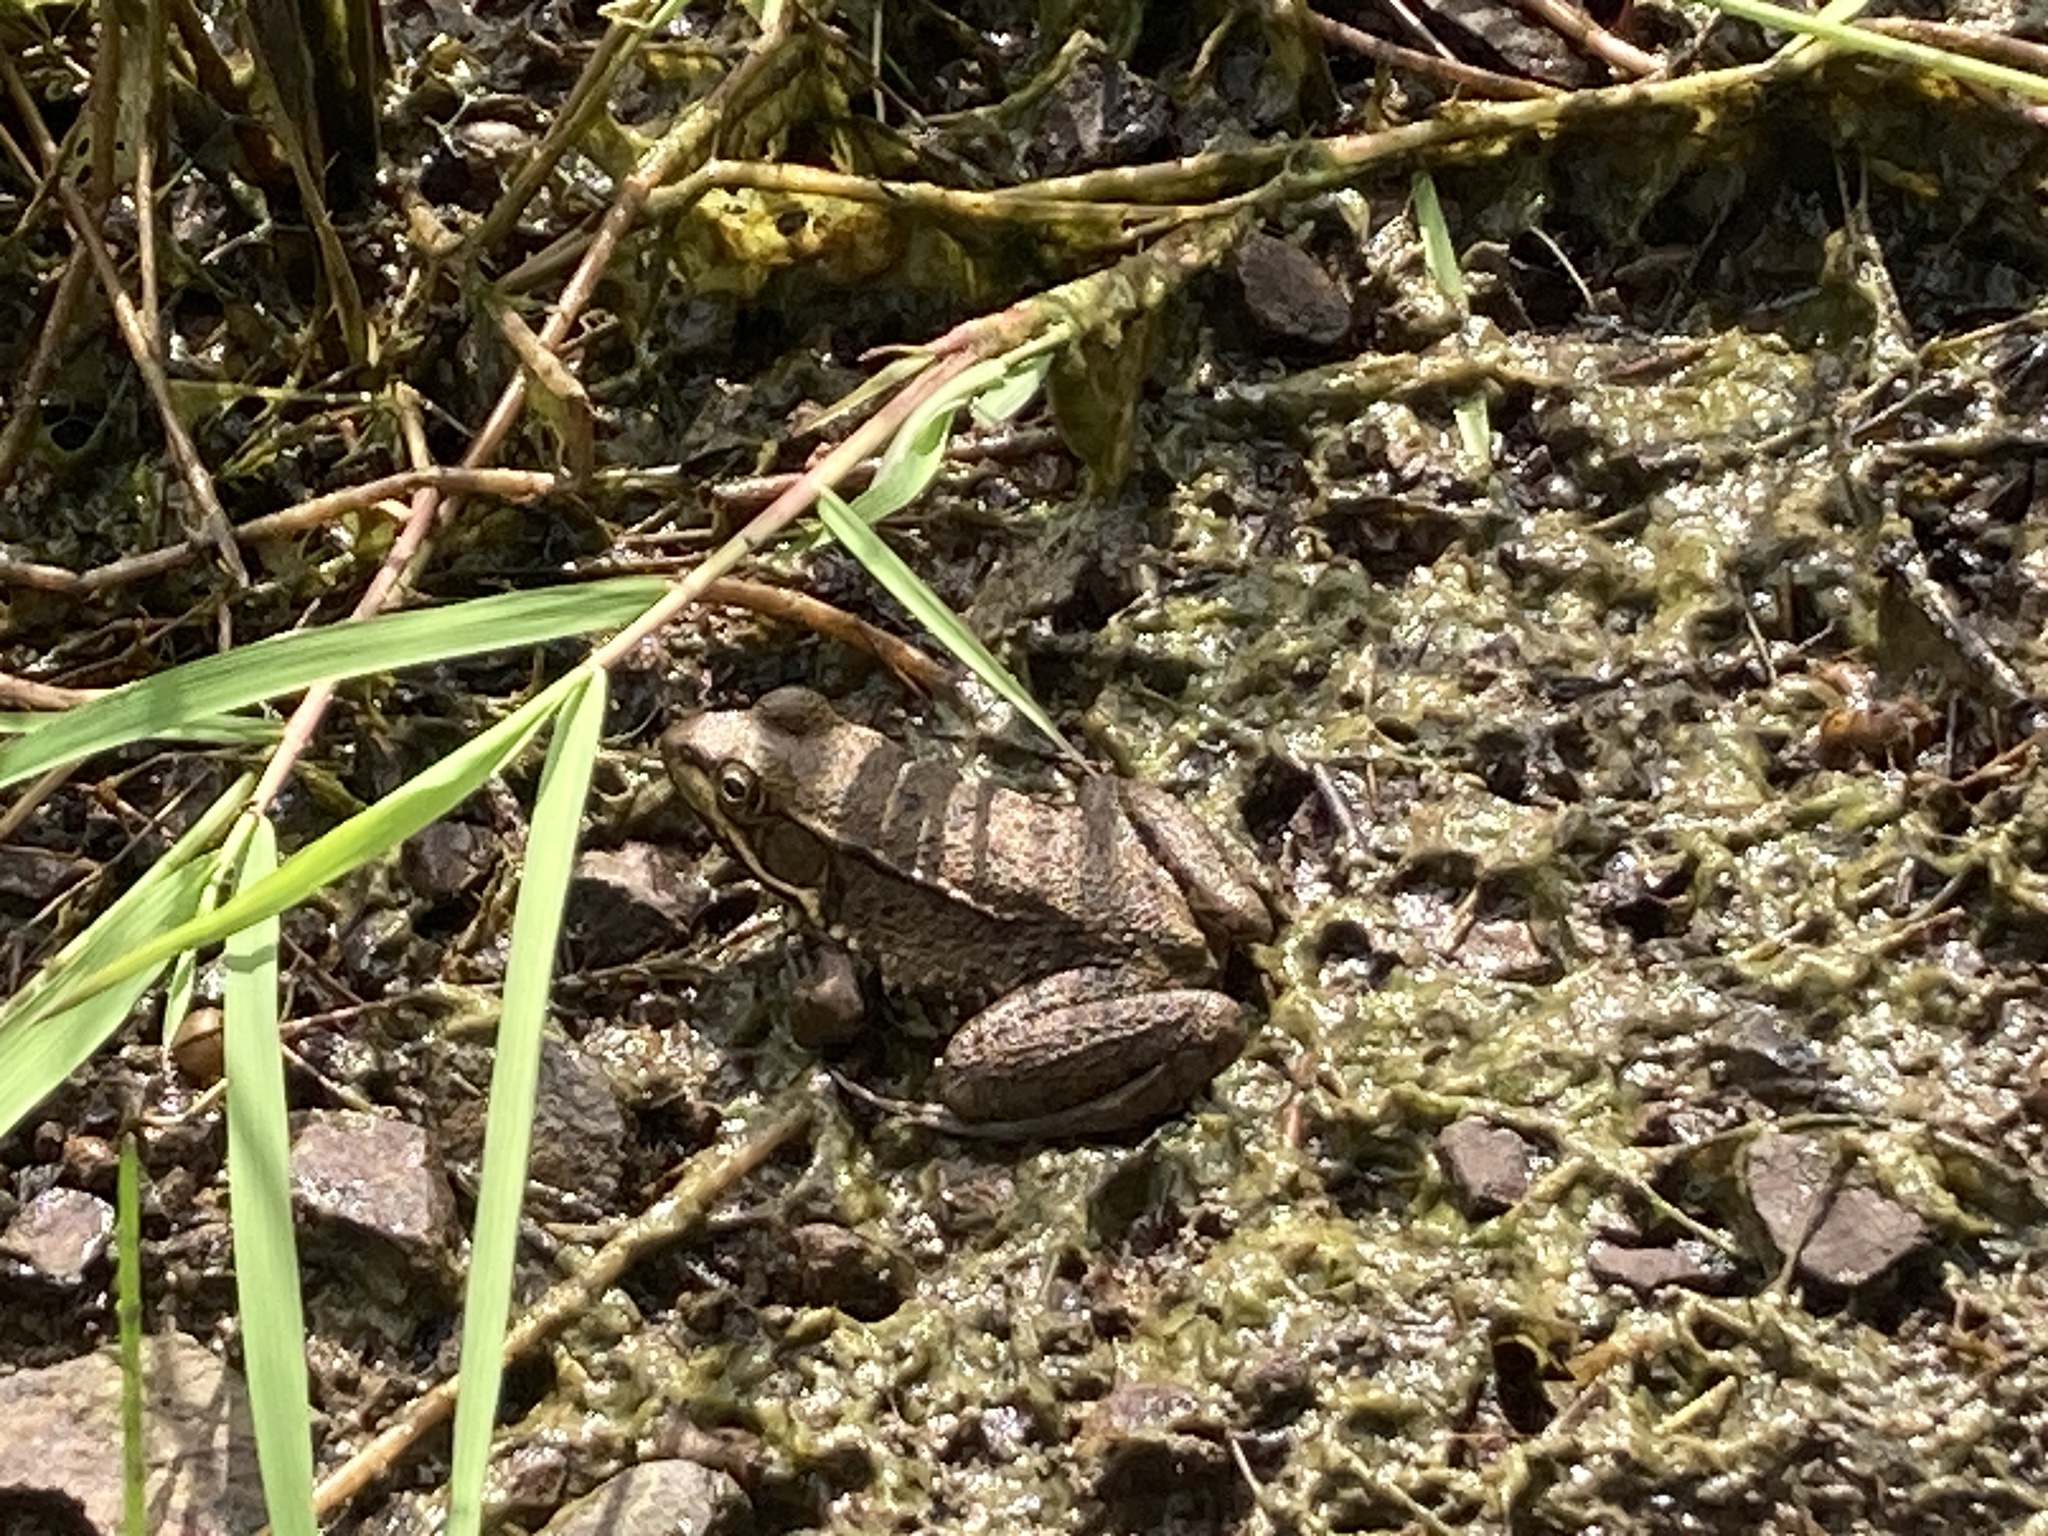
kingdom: Animalia
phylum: Chordata
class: Amphibia
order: Anura
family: Ranidae
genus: Lithobates
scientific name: Lithobates clamitans
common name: Green frog
